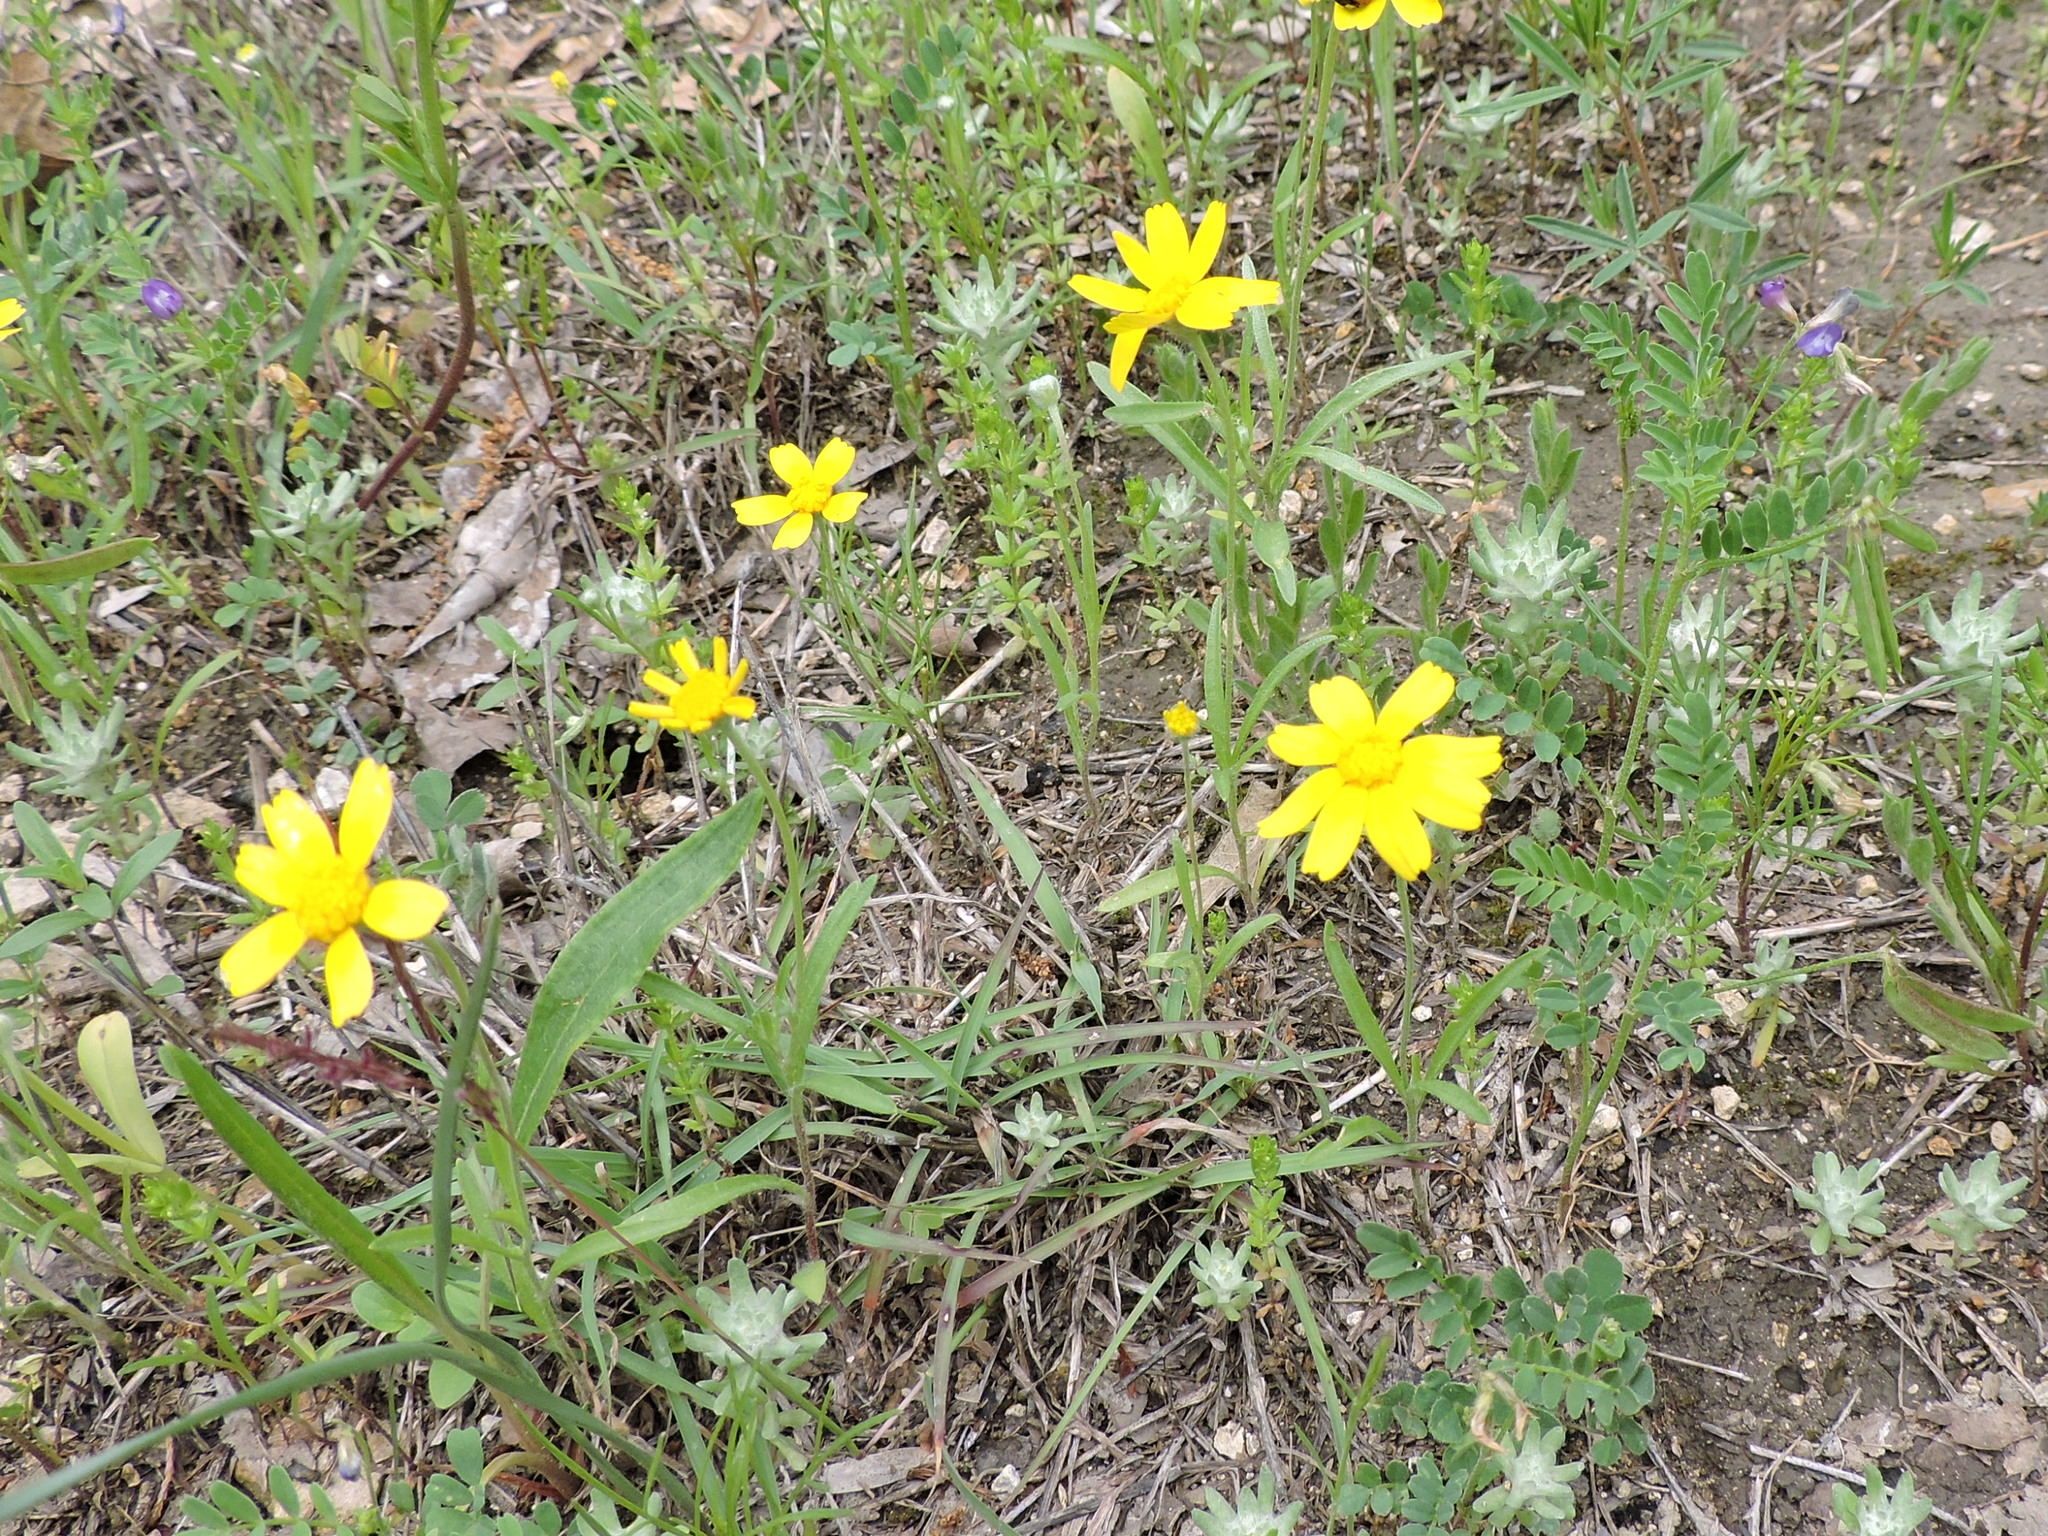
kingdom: Plantae
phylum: Tracheophyta
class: Magnoliopsida
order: Asterales
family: Asteraceae
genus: Tetraneuris
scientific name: Tetraneuris linearifolia
